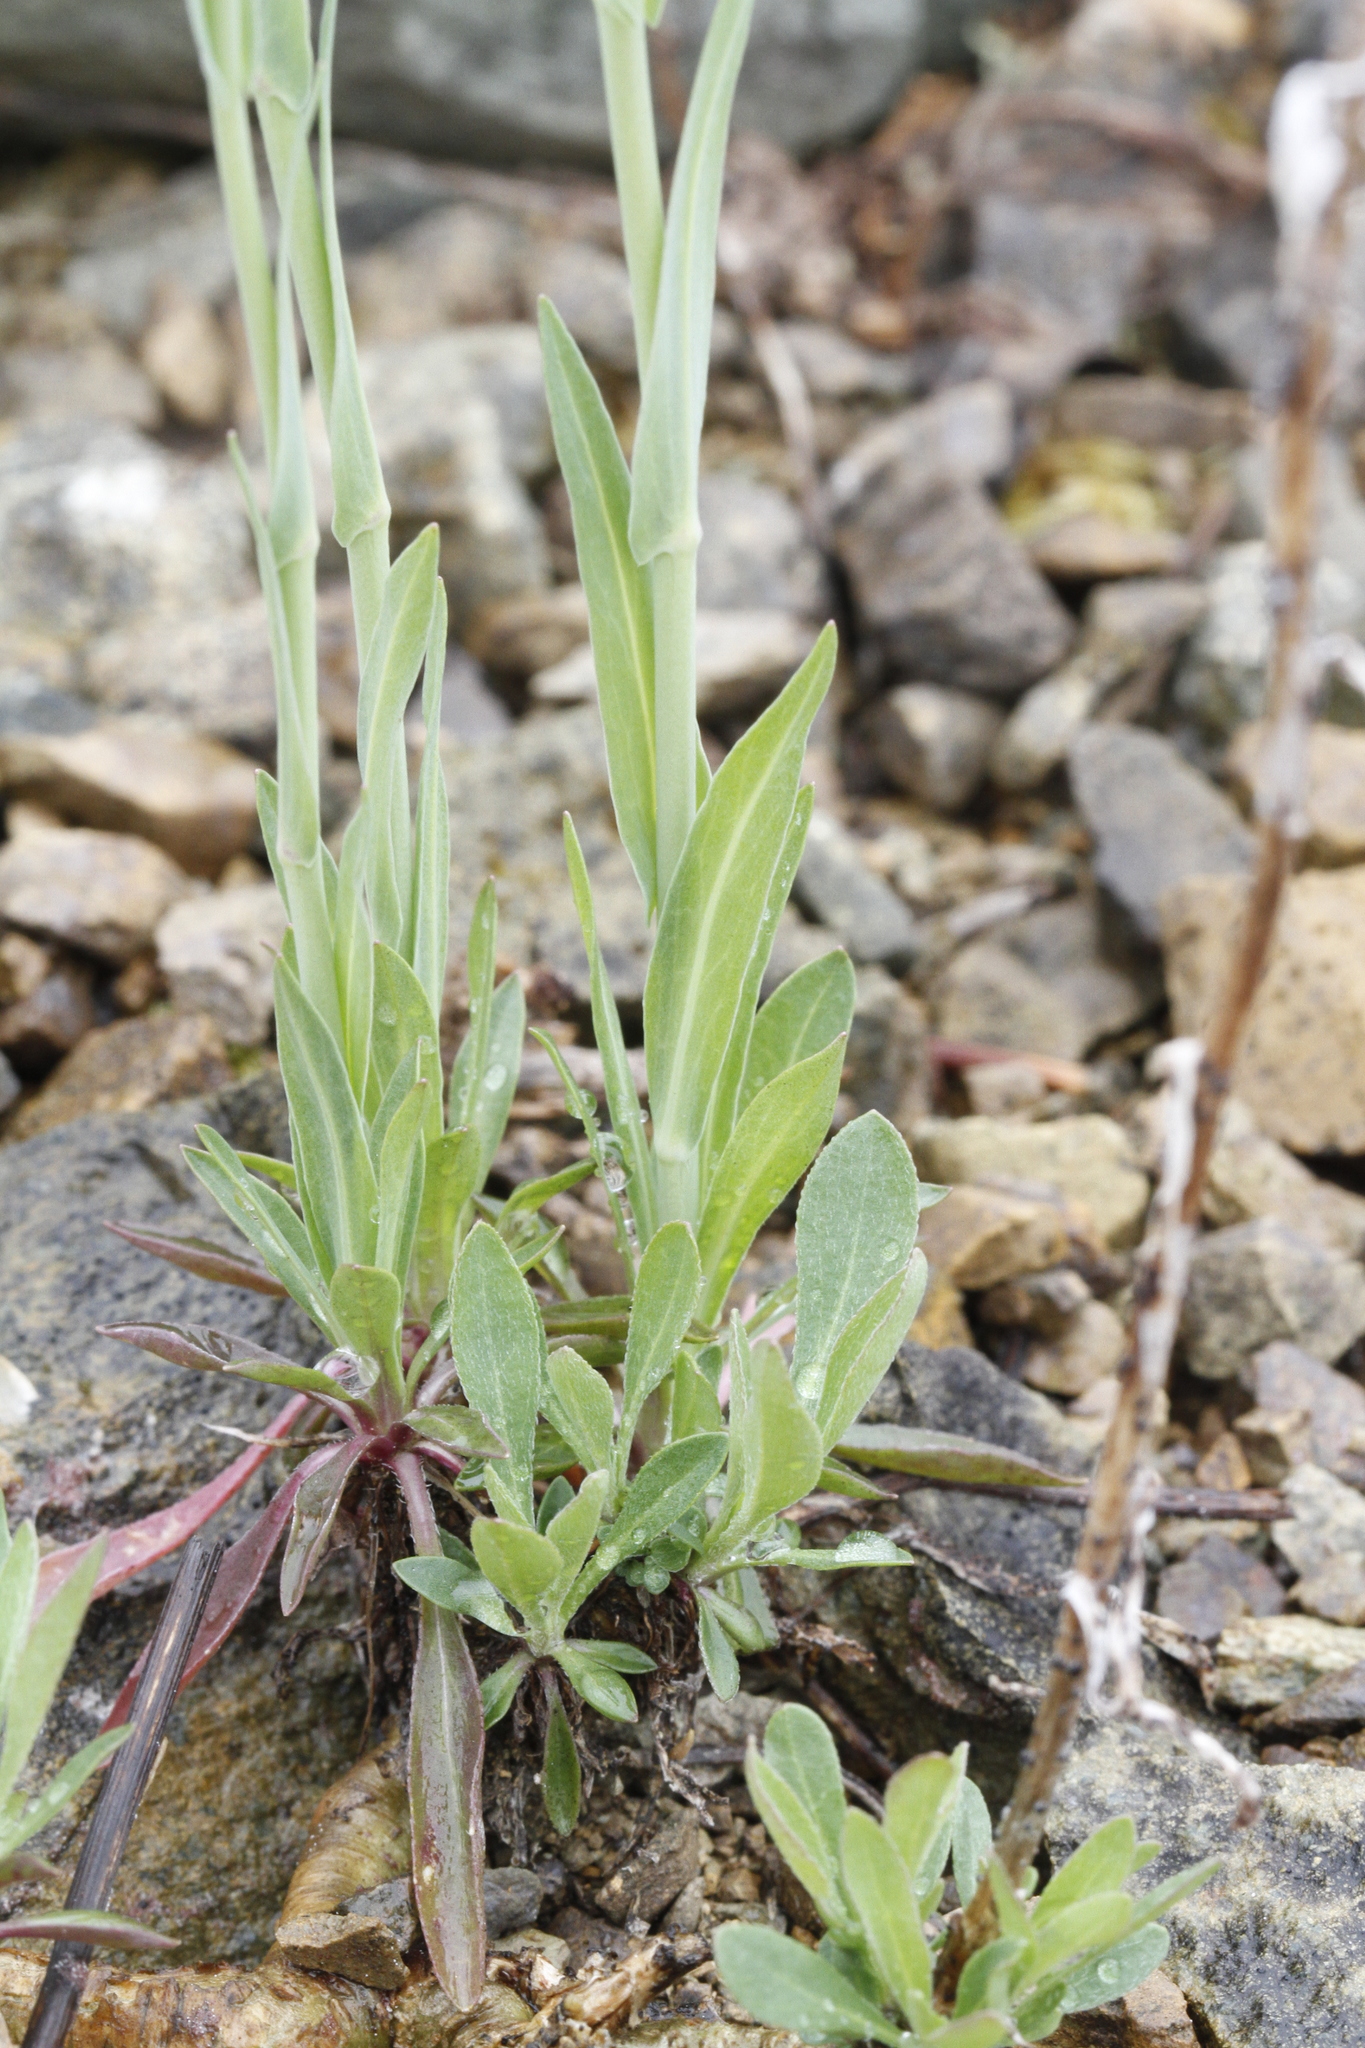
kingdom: Plantae
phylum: Tracheophyta
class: Magnoliopsida
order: Brassicales
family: Brassicaceae
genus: Boechera
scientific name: Boechera stricta
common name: Canadian rockcress
